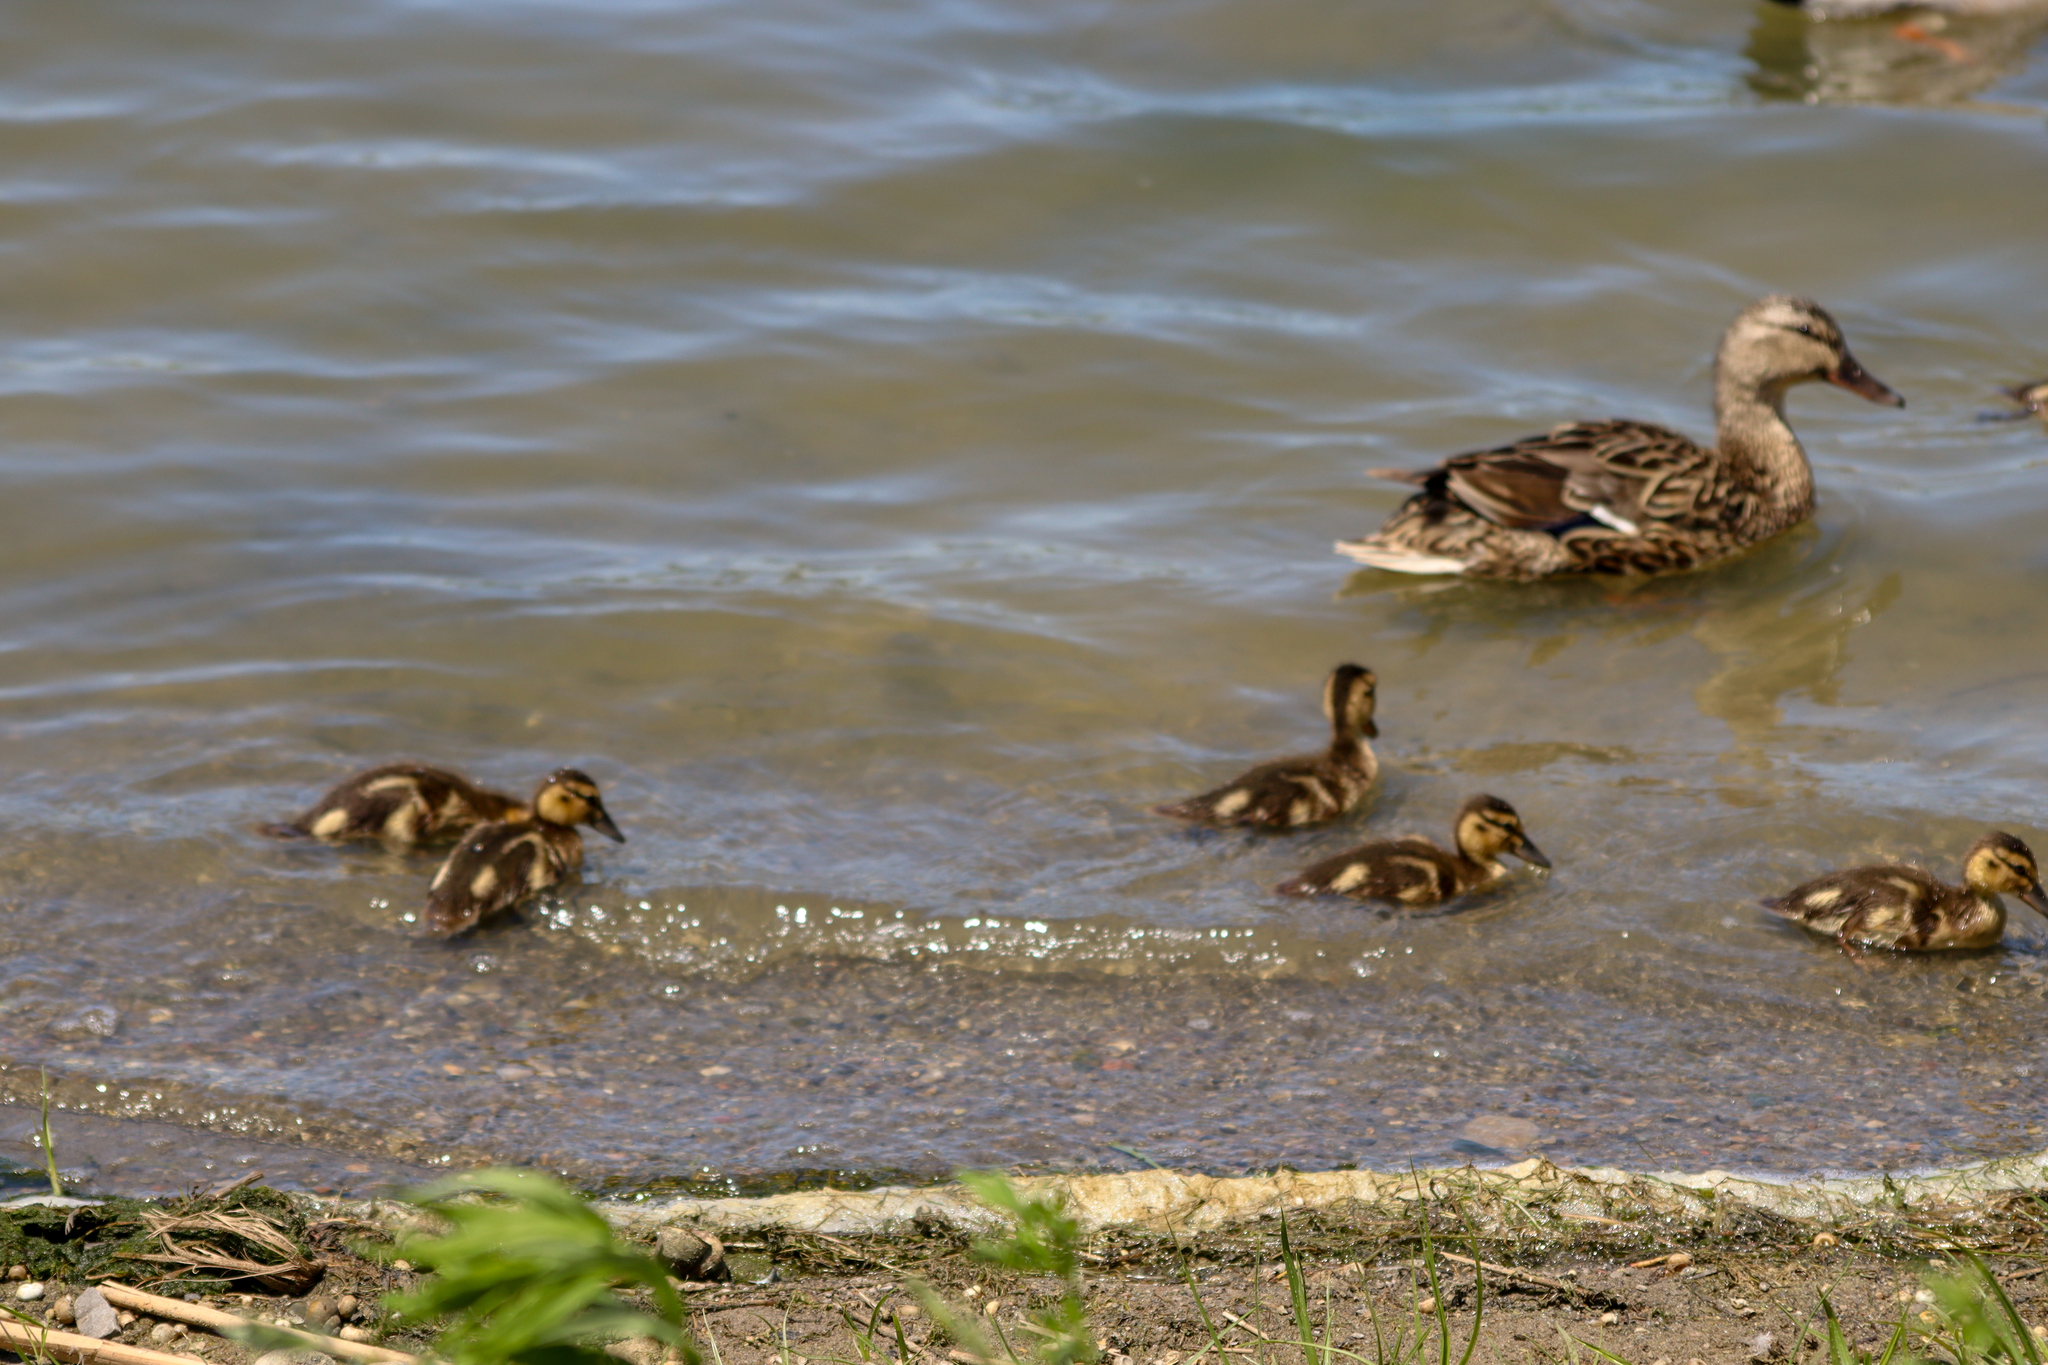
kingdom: Animalia
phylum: Chordata
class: Aves
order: Anseriformes
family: Anatidae
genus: Anas
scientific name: Anas platyrhynchos
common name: Mallard
